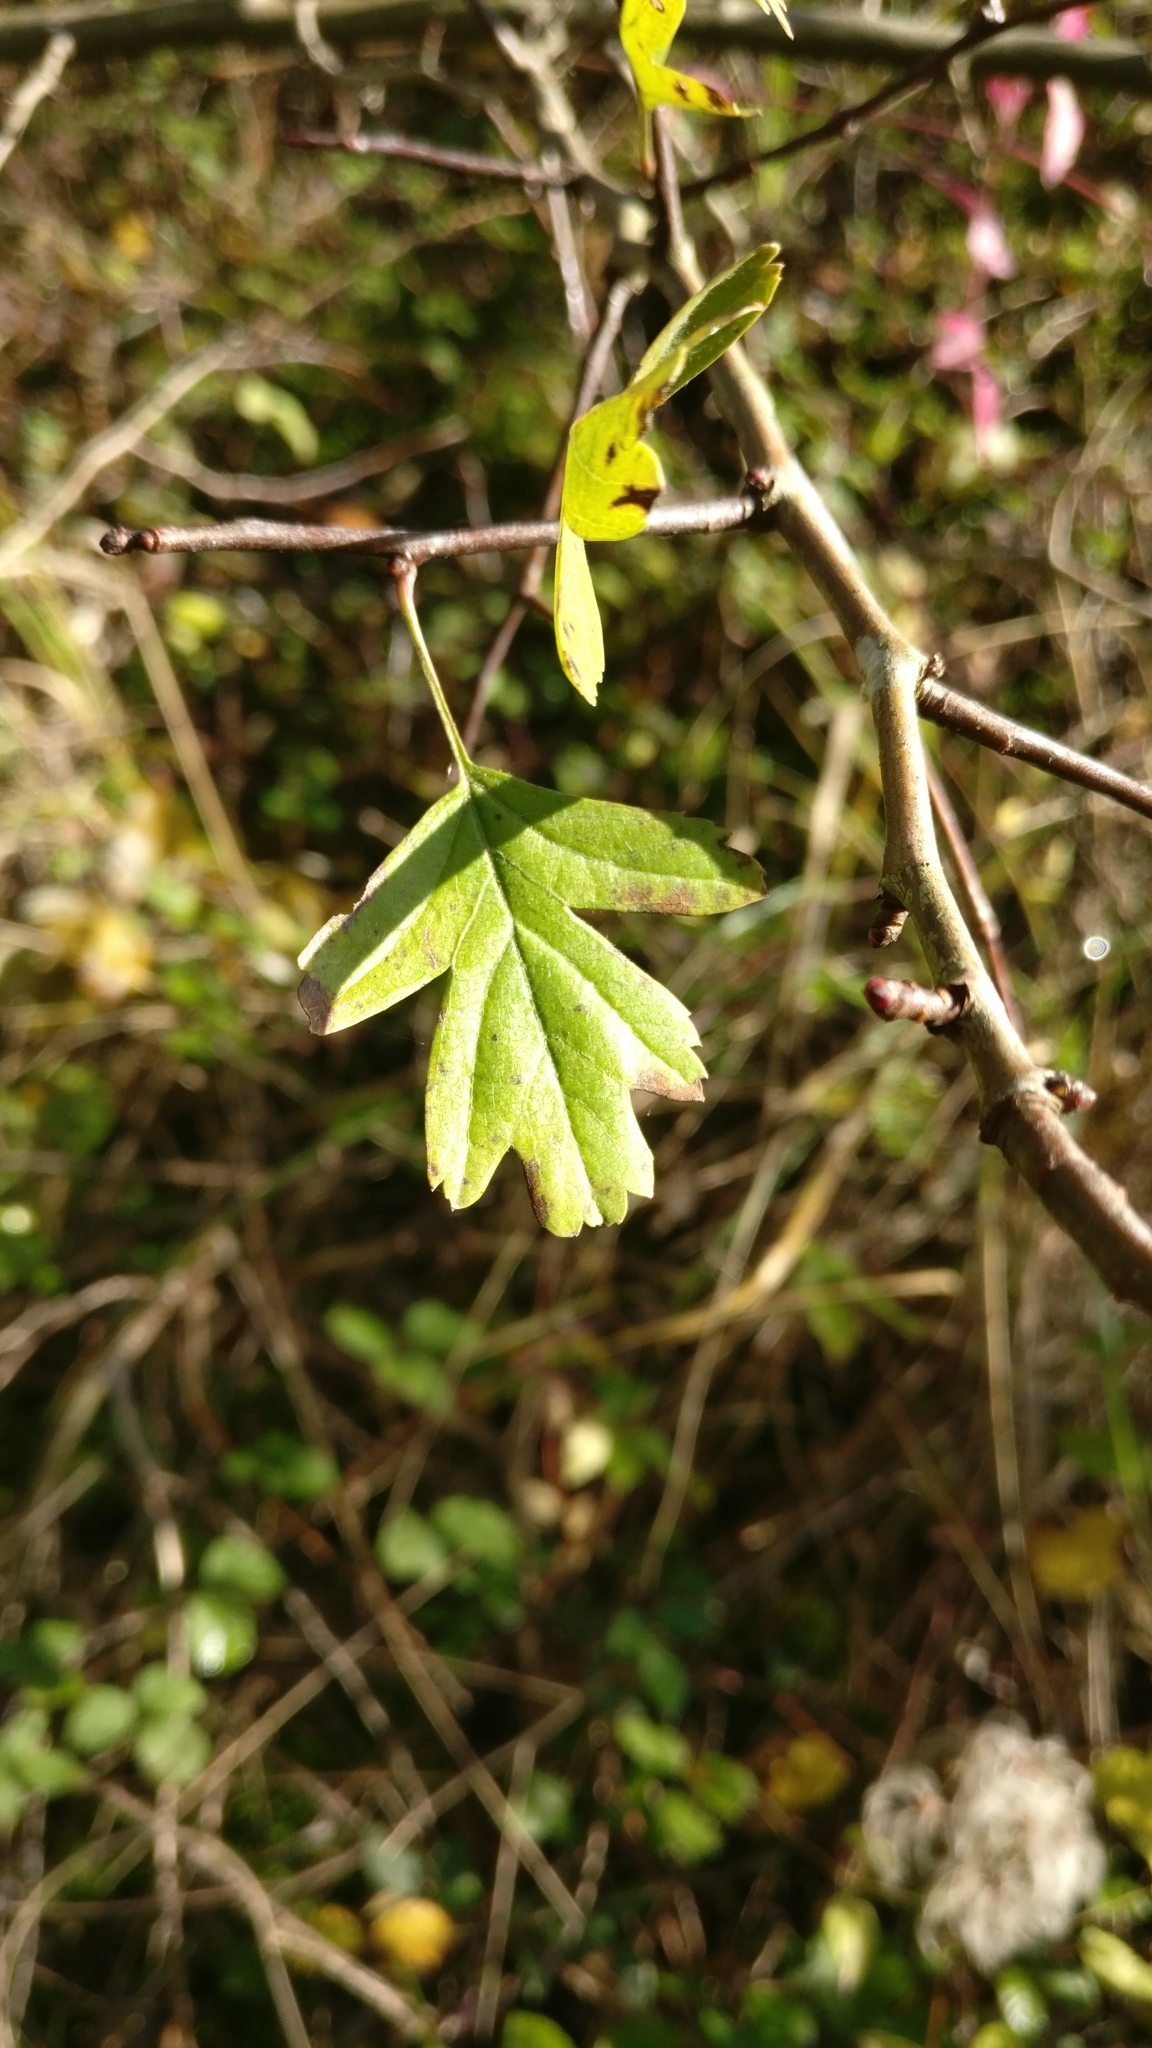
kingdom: Plantae
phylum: Tracheophyta
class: Magnoliopsida
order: Rosales
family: Rosaceae
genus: Crataegus
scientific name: Crataegus monogyna
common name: Hawthorn
